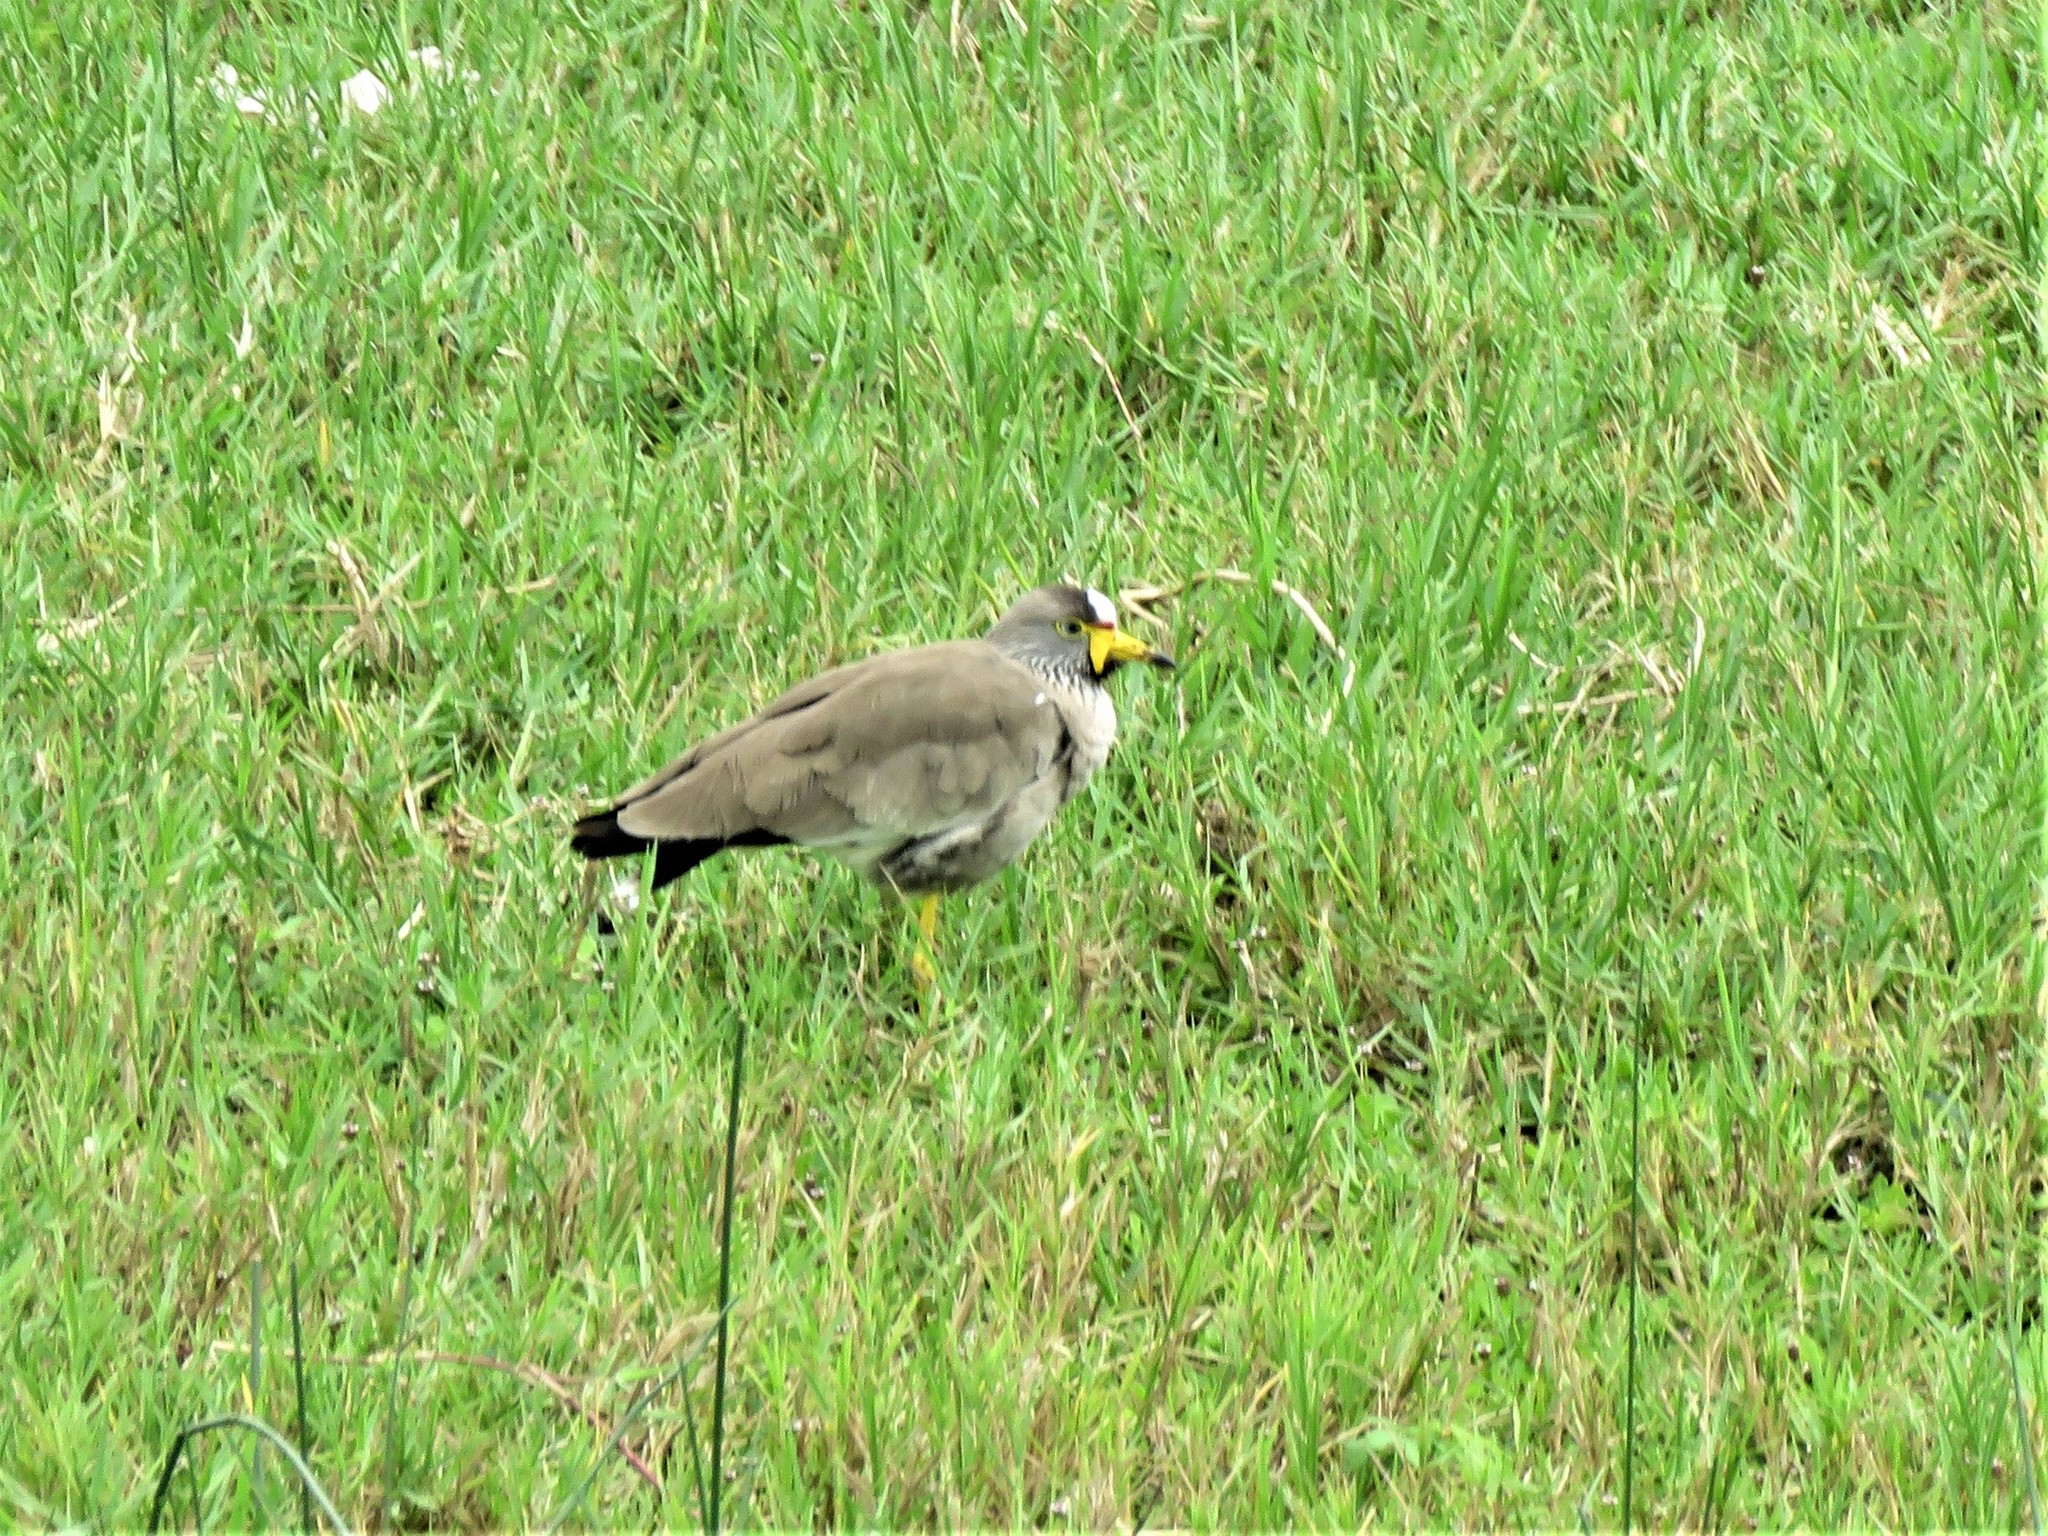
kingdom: Animalia
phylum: Chordata
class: Aves
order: Charadriiformes
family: Charadriidae
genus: Vanellus
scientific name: Vanellus senegallus
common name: African wattled lapwing
